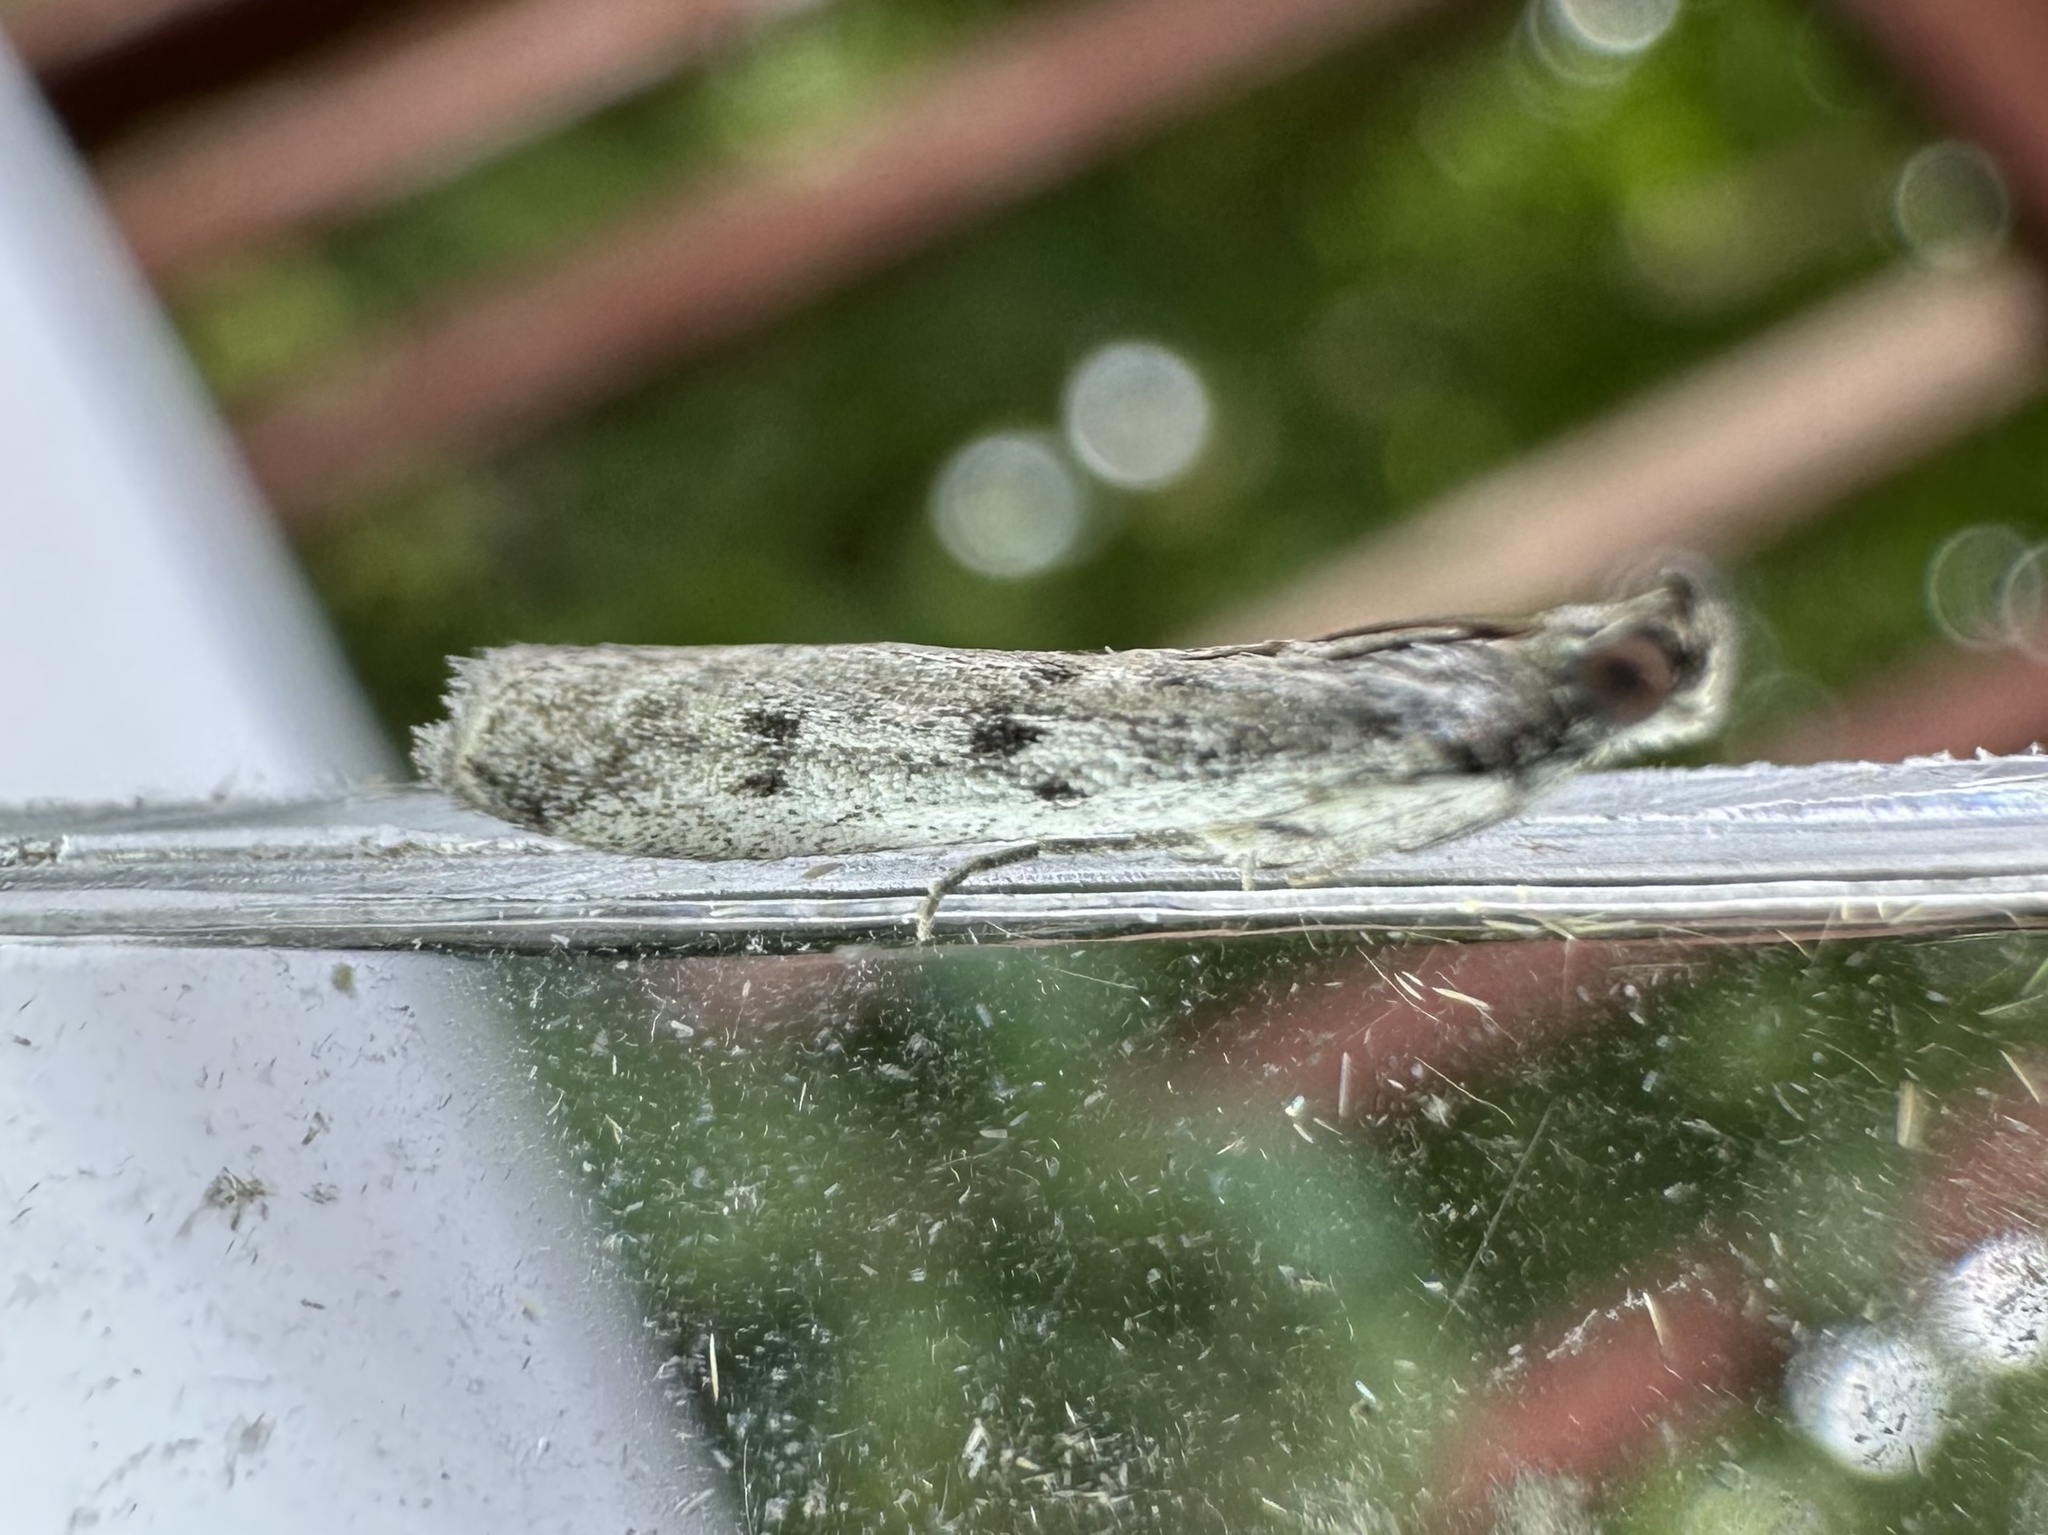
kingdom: Animalia
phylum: Arthropoda
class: Insecta
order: Lepidoptera
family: Pyralidae
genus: Phycitodes
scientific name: Phycitodes mucidellus
